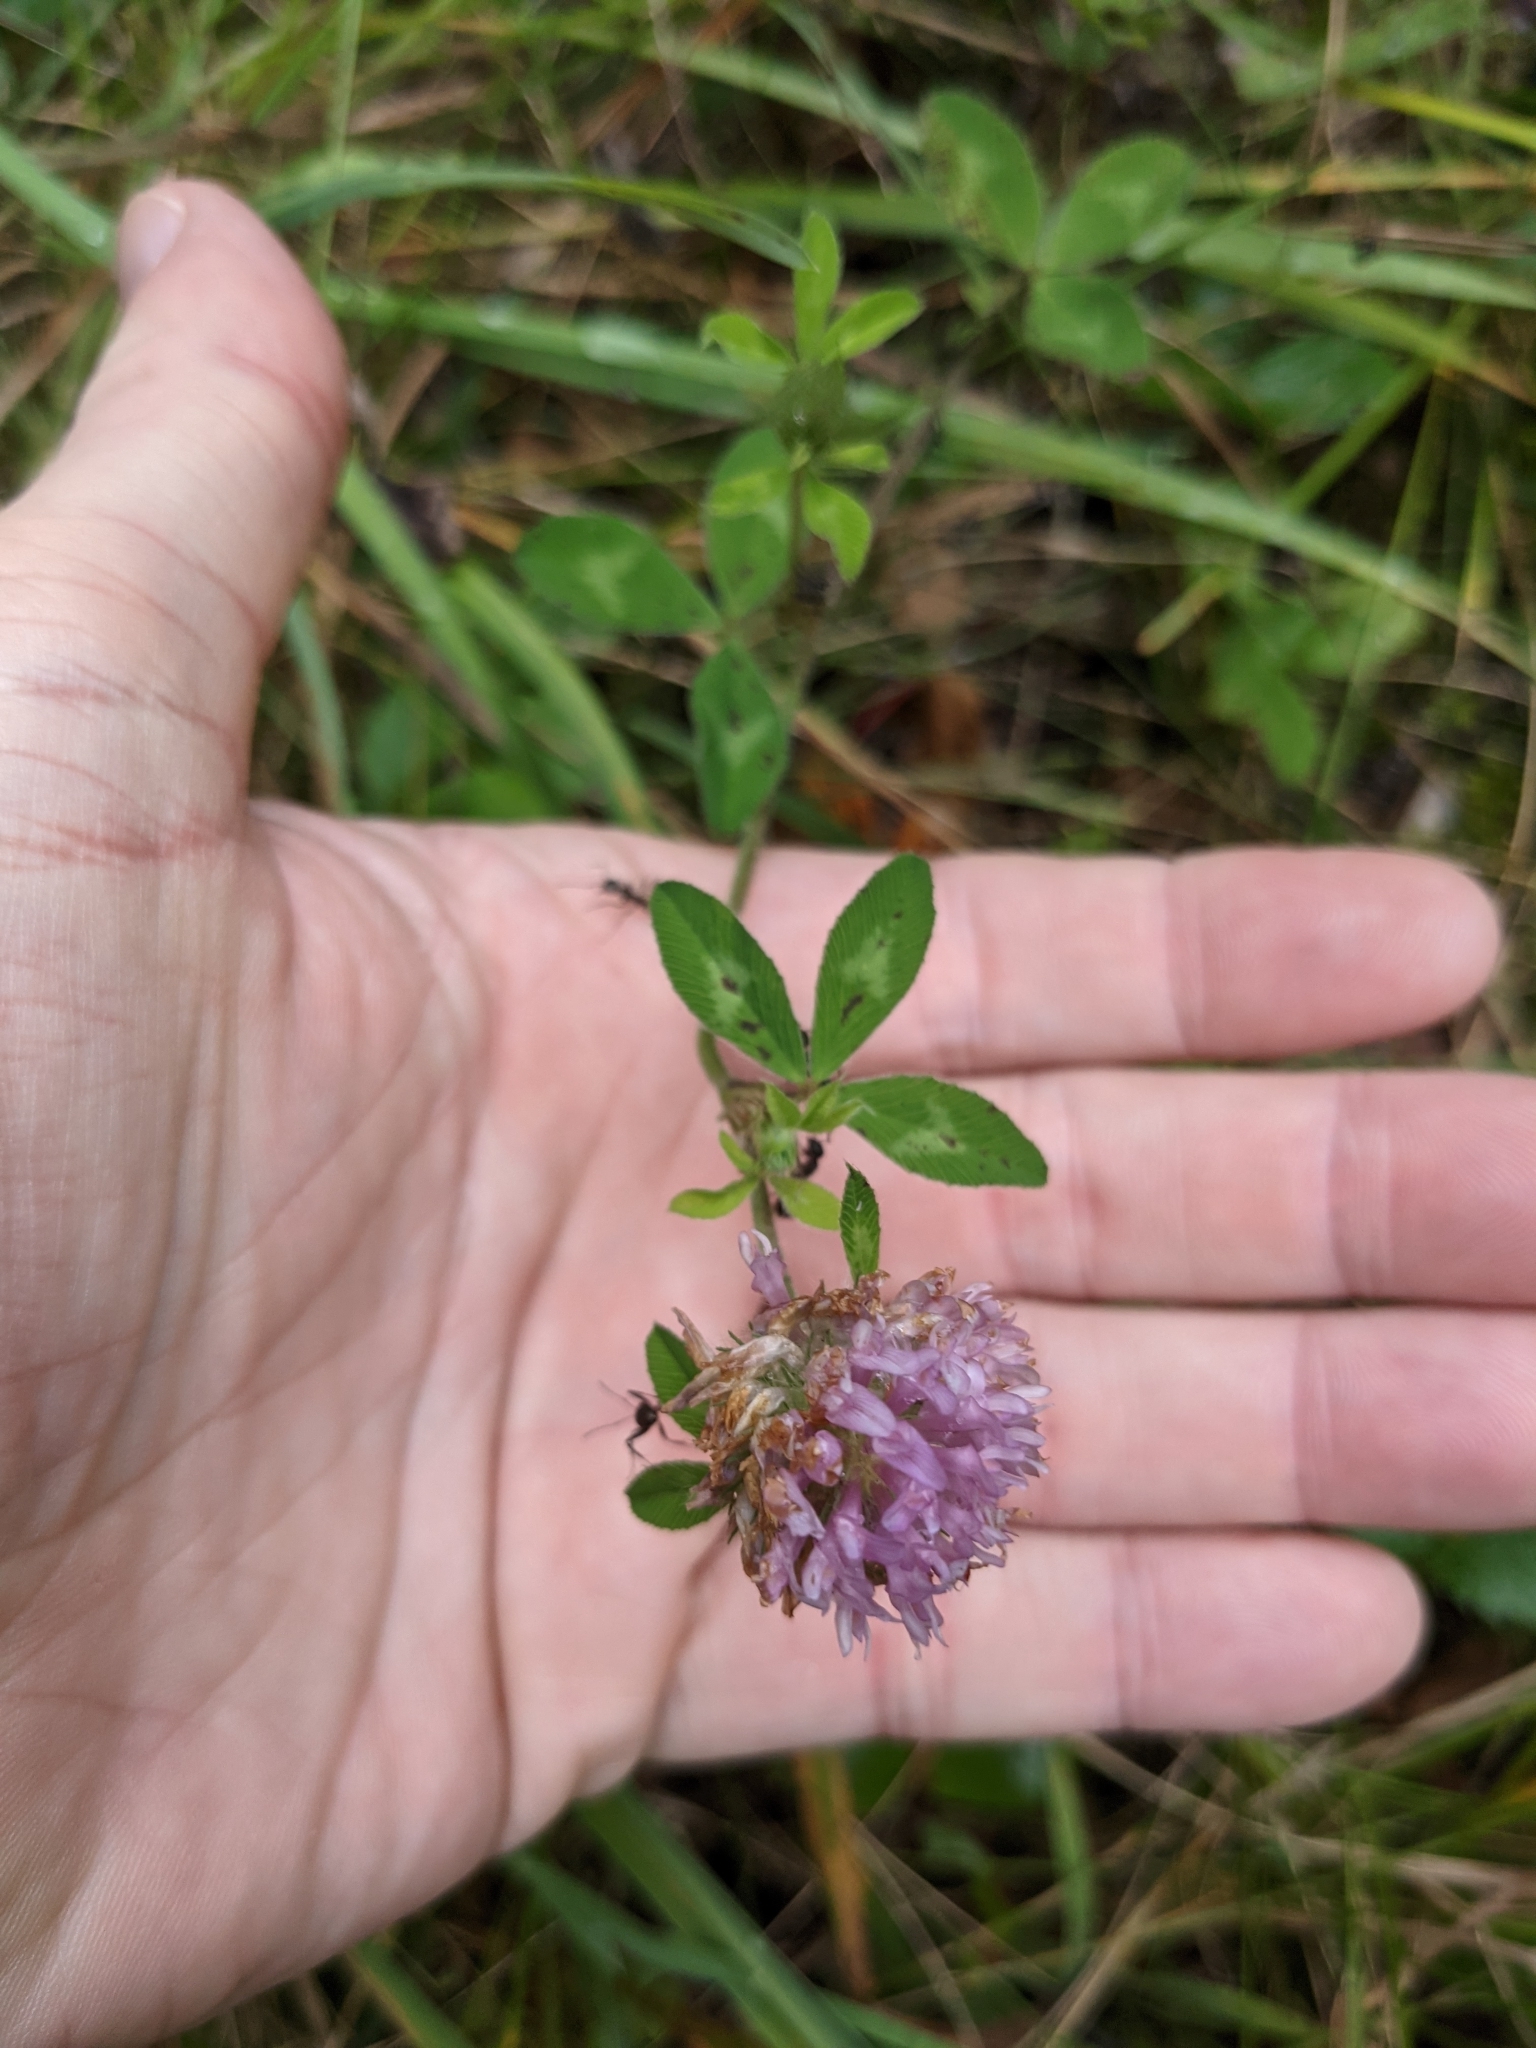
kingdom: Plantae
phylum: Tracheophyta
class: Magnoliopsida
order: Fabales
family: Fabaceae
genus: Trifolium
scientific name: Trifolium pratense
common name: Red clover
